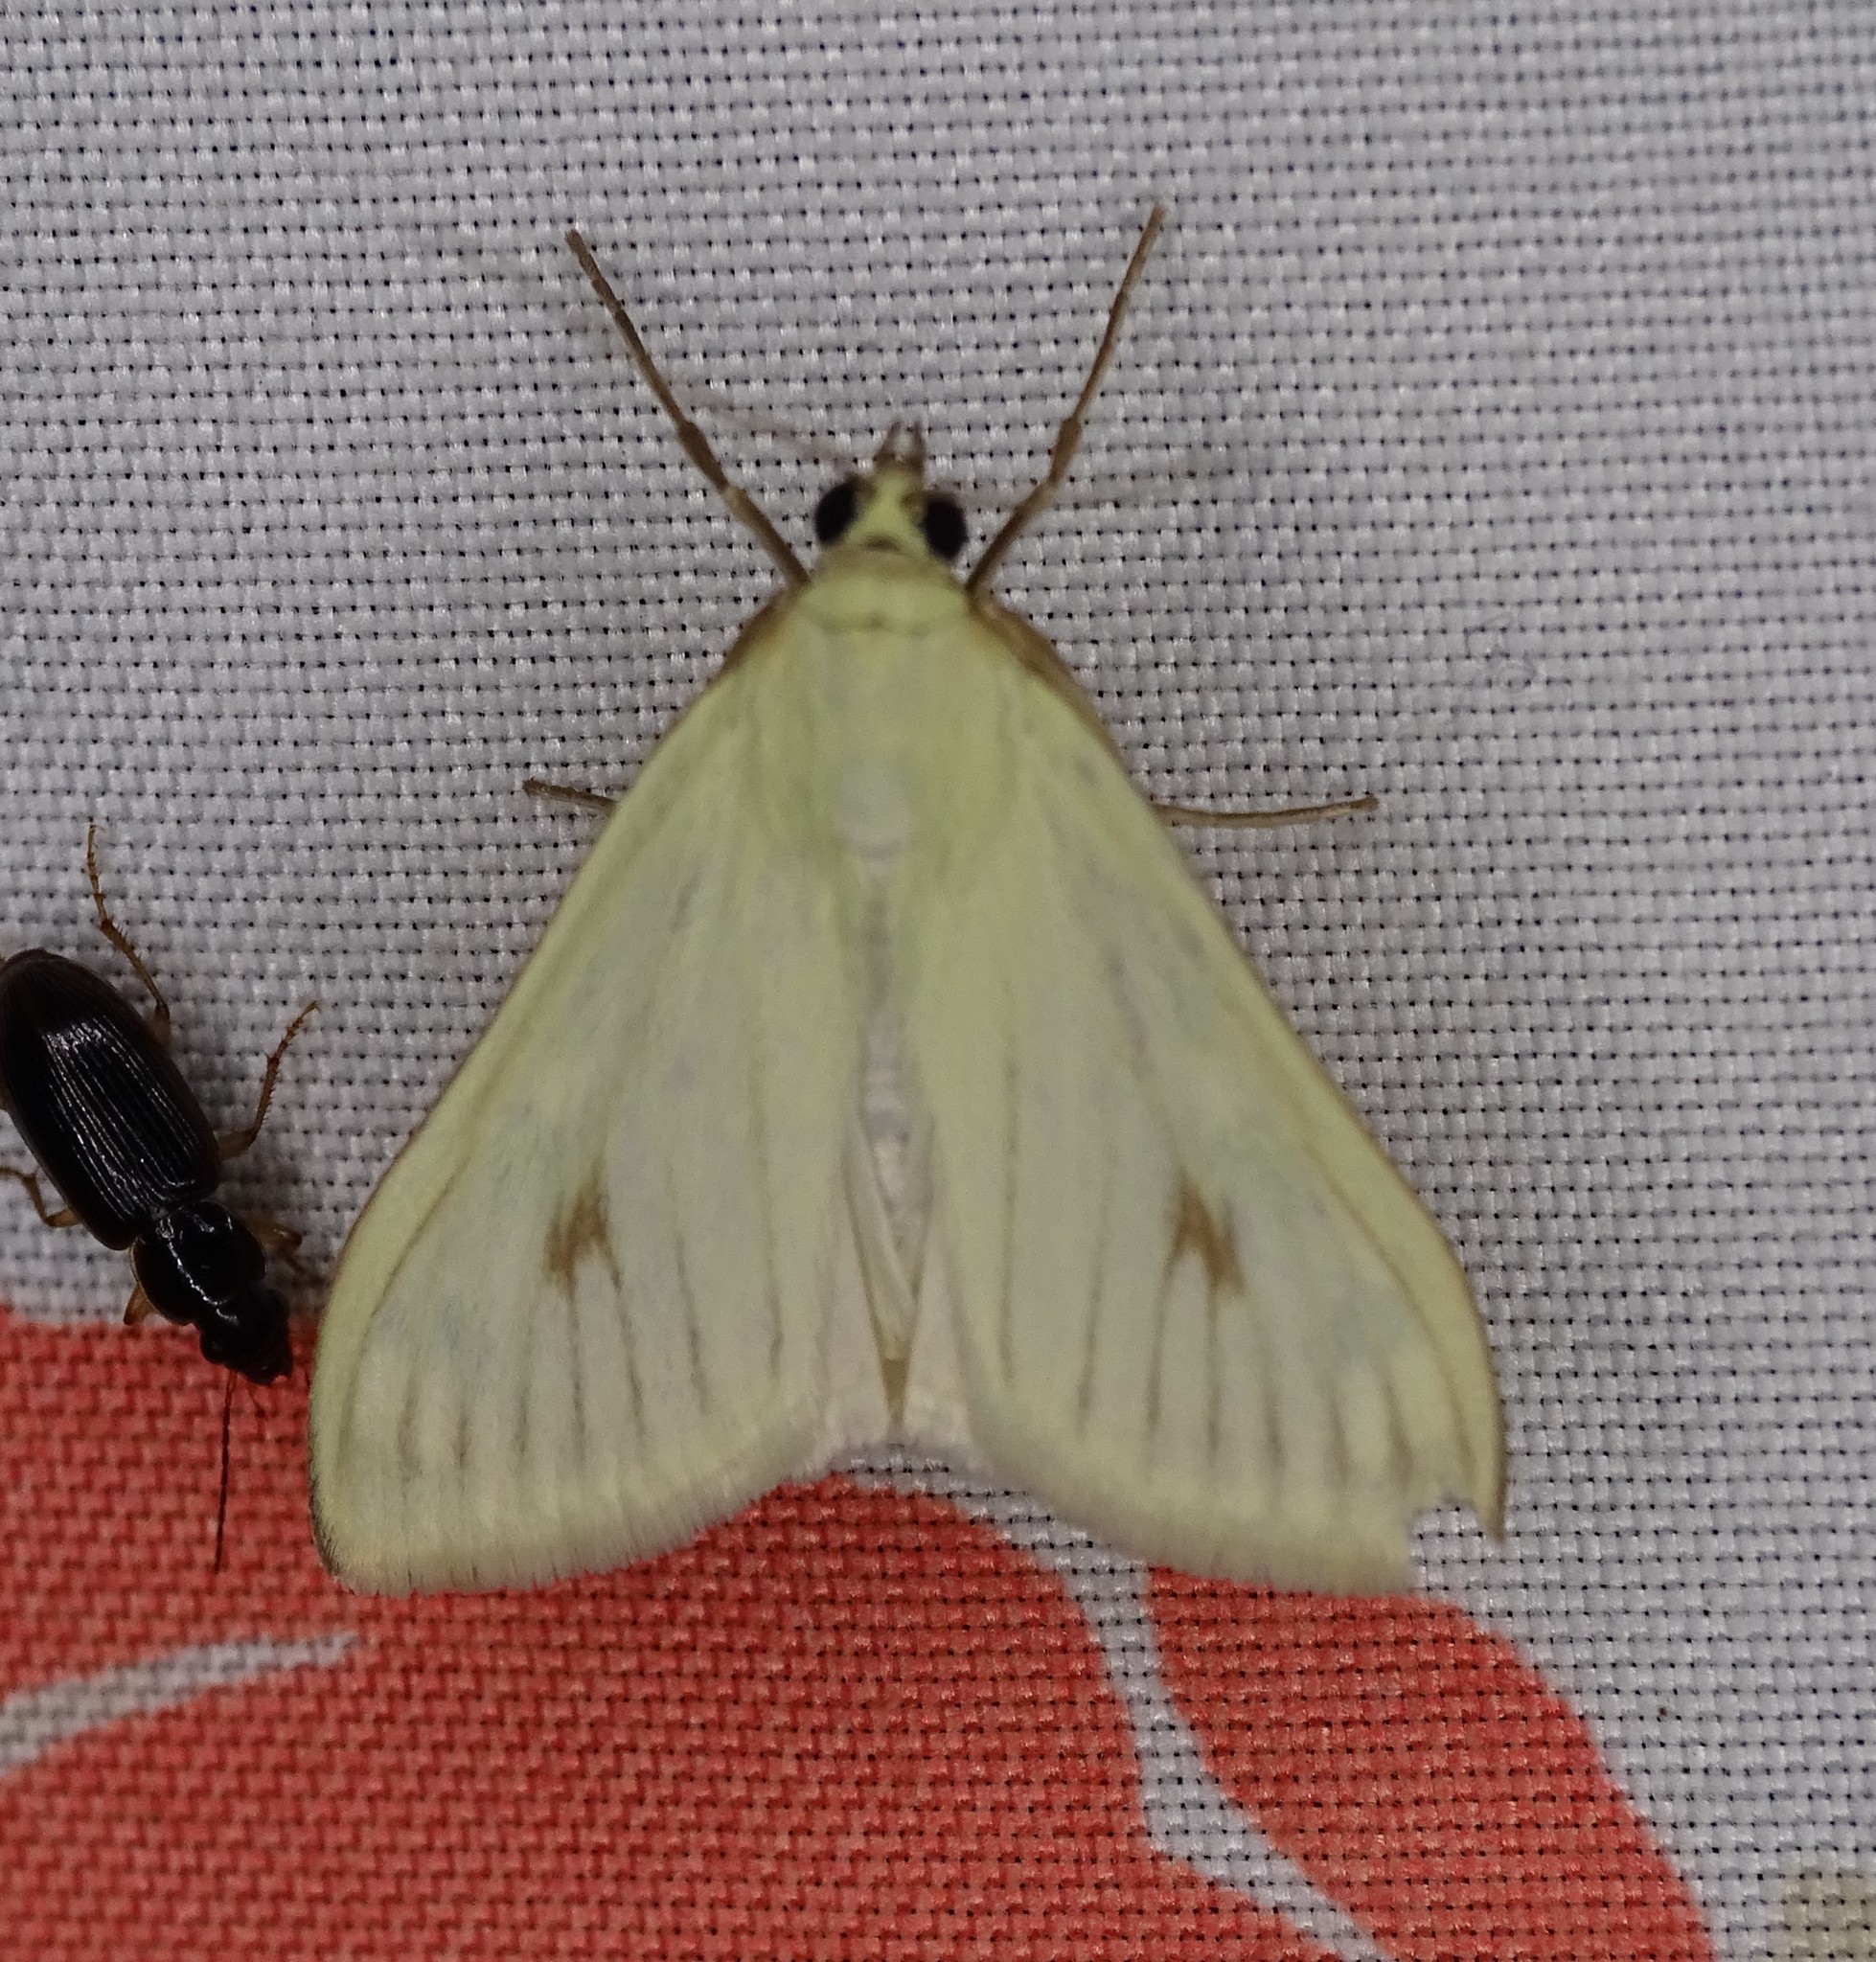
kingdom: Animalia
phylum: Arthropoda
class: Insecta
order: Lepidoptera
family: Crambidae
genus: Sitochroa
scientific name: Sitochroa palealis
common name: Greenish-yellow sitochroa moth
